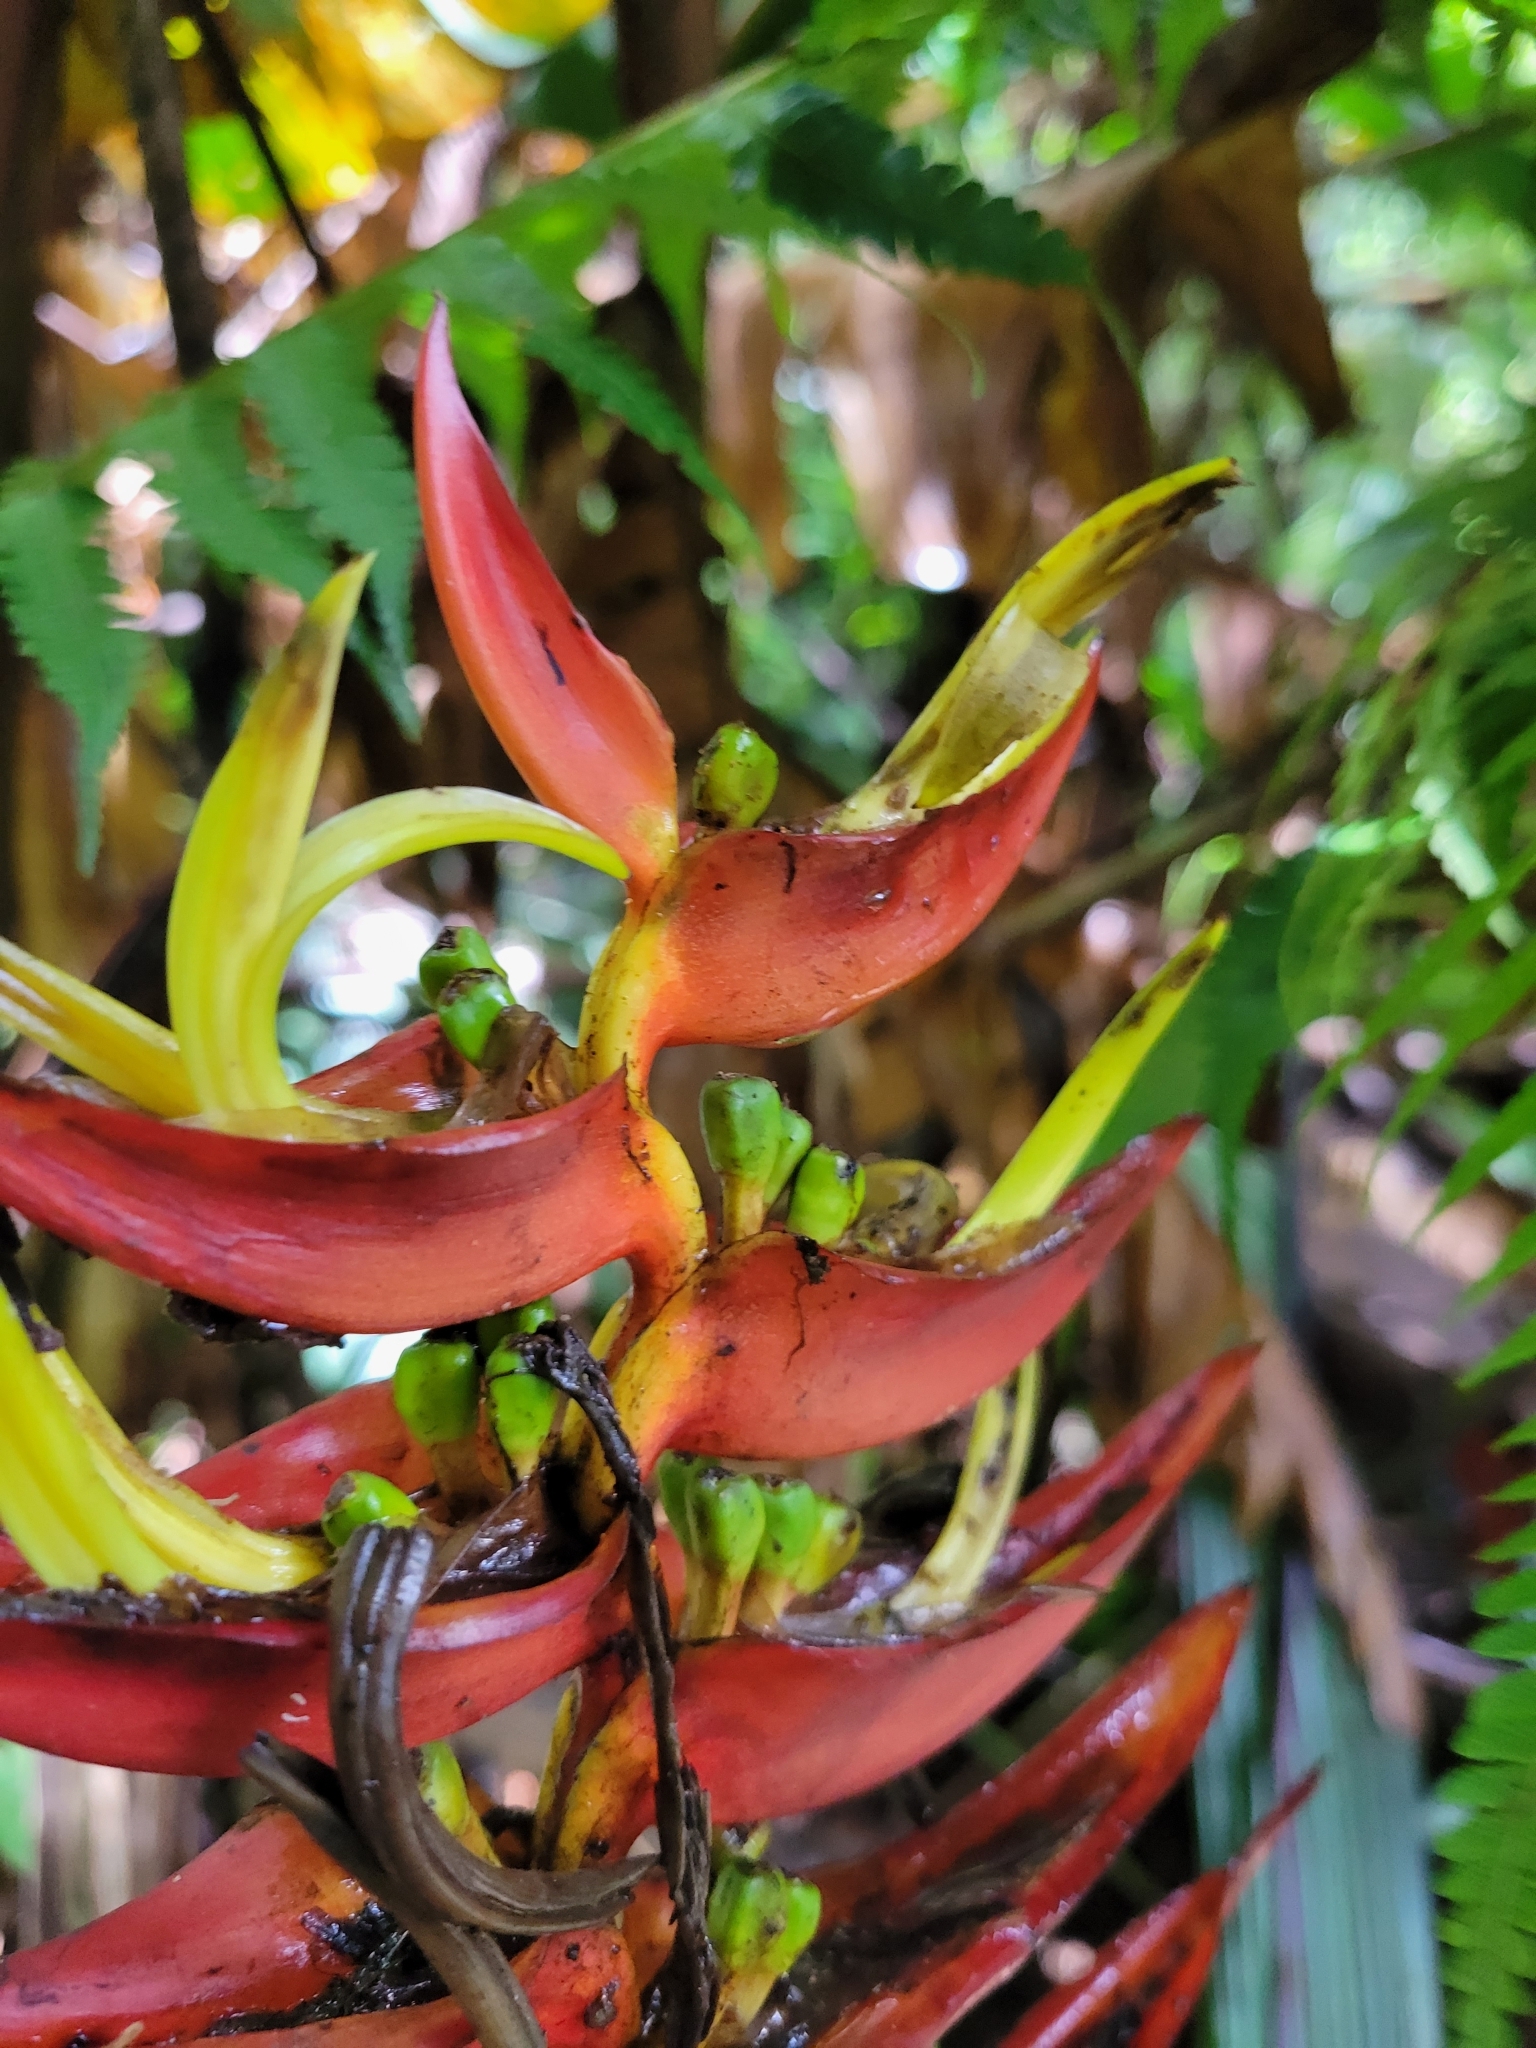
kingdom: Plantae
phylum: Tracheophyta
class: Liliopsida
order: Zingiberales
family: Heliconiaceae
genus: Heliconia
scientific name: Heliconia lankesteri
